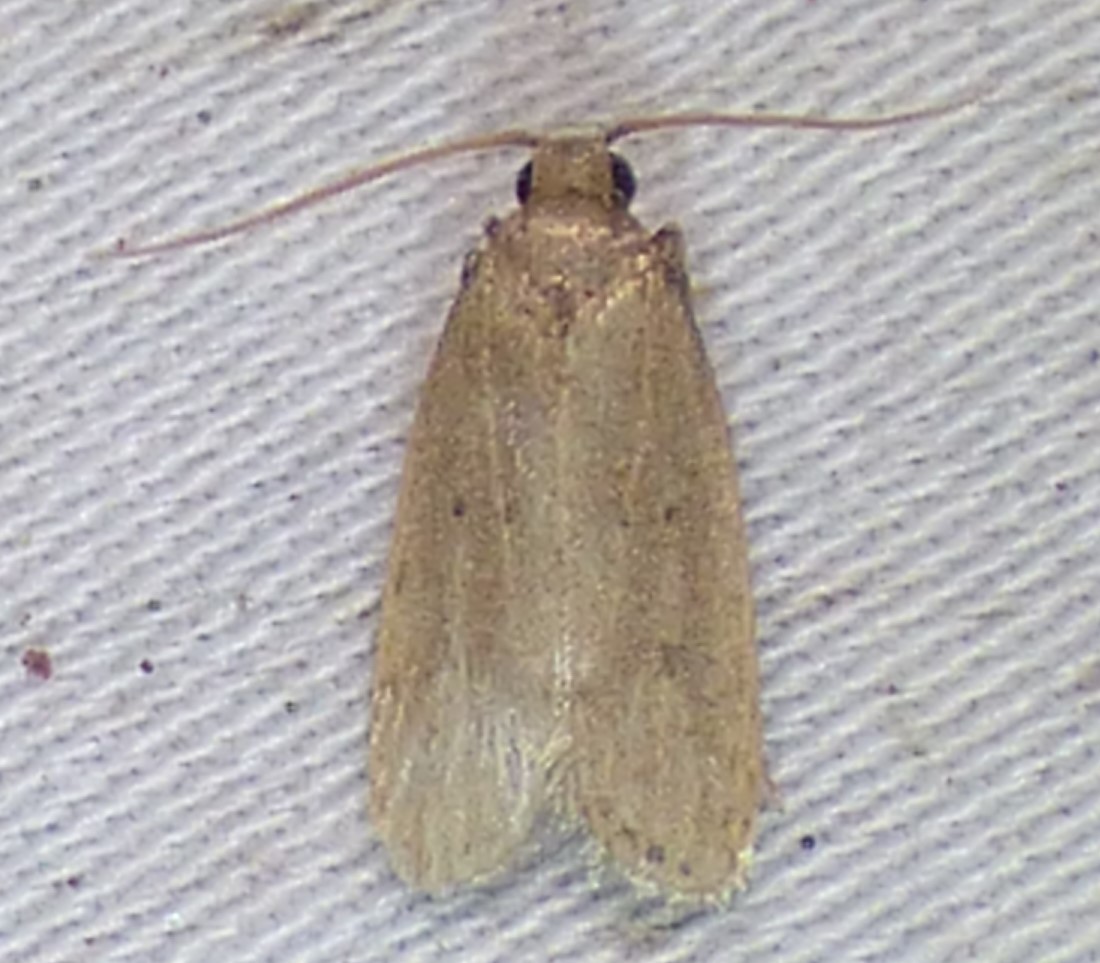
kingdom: Animalia
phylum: Arthropoda
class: Insecta
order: Lepidoptera
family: Autostichidae
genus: Autosticha
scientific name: Autosticha kyotensis
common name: Kyoto moth
